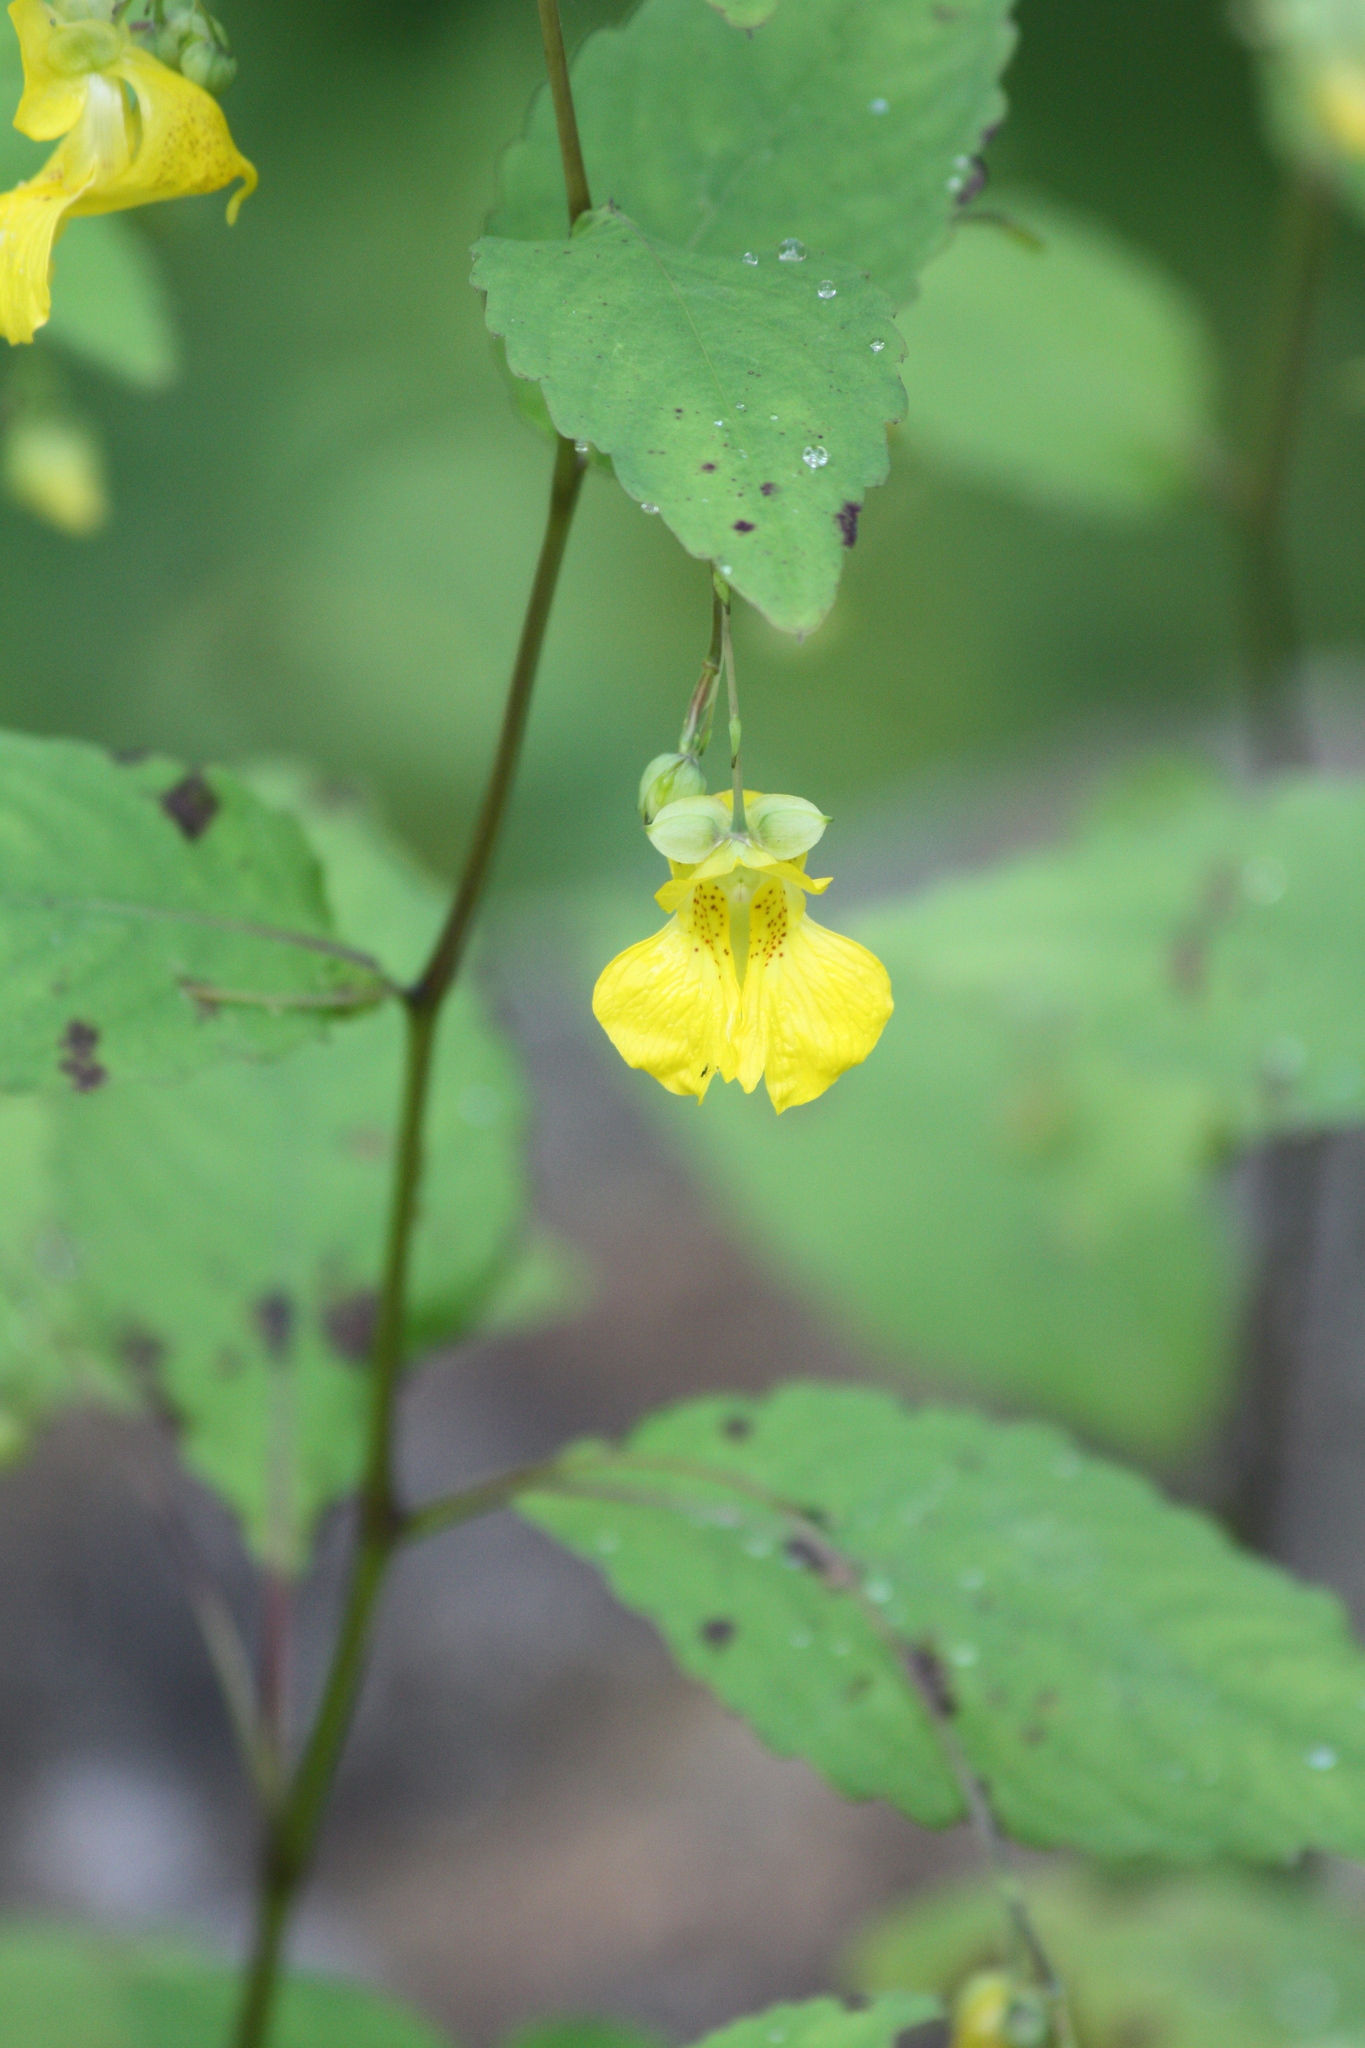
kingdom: Plantae
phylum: Tracheophyta
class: Magnoliopsida
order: Ericales
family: Balsaminaceae
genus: Impatiens
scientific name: Impatiens pallida
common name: Pale snapweed
